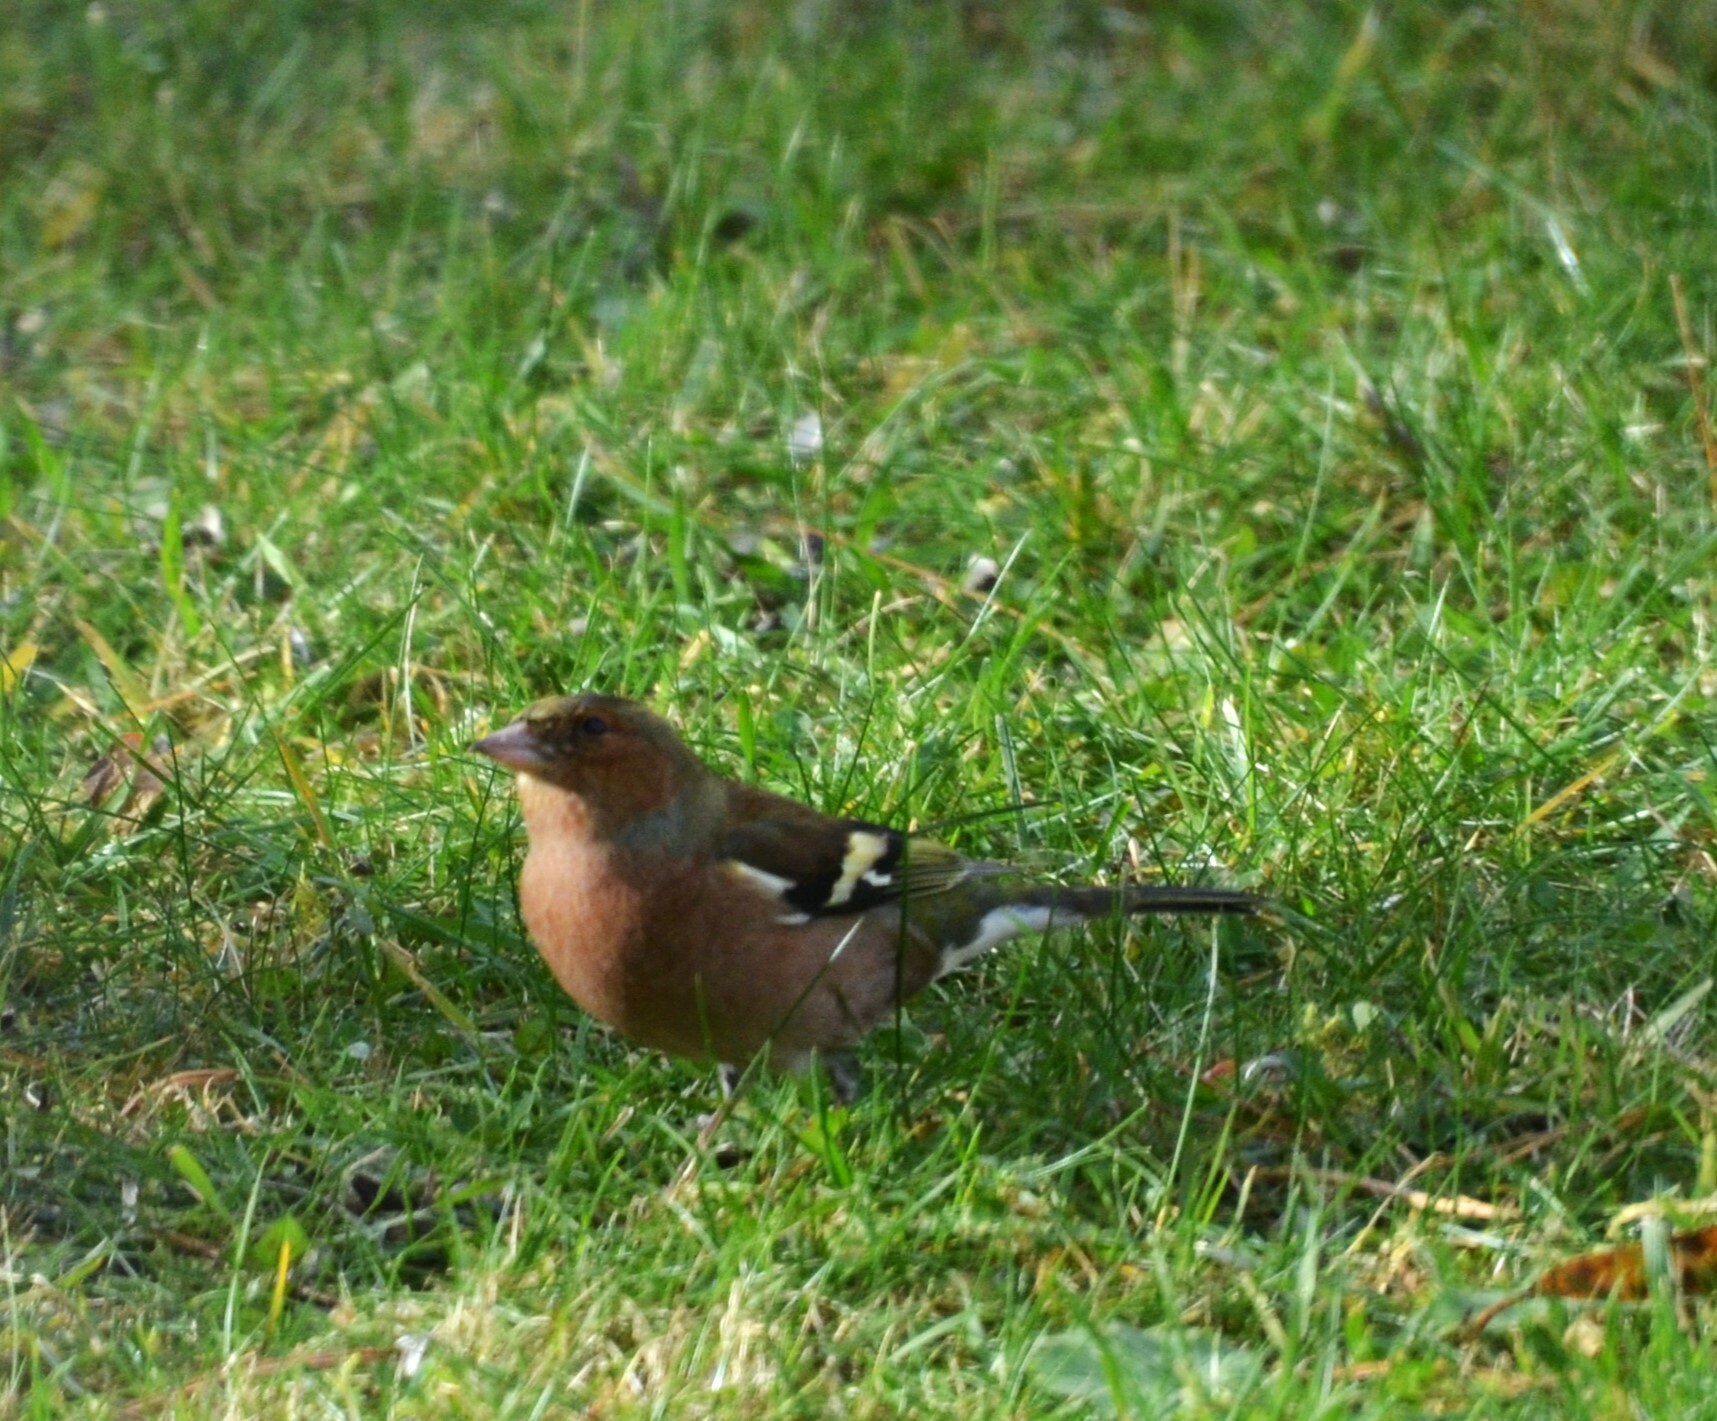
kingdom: Animalia
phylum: Chordata
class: Aves
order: Passeriformes
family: Fringillidae
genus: Fringilla
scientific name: Fringilla coelebs
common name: Common chaffinch
